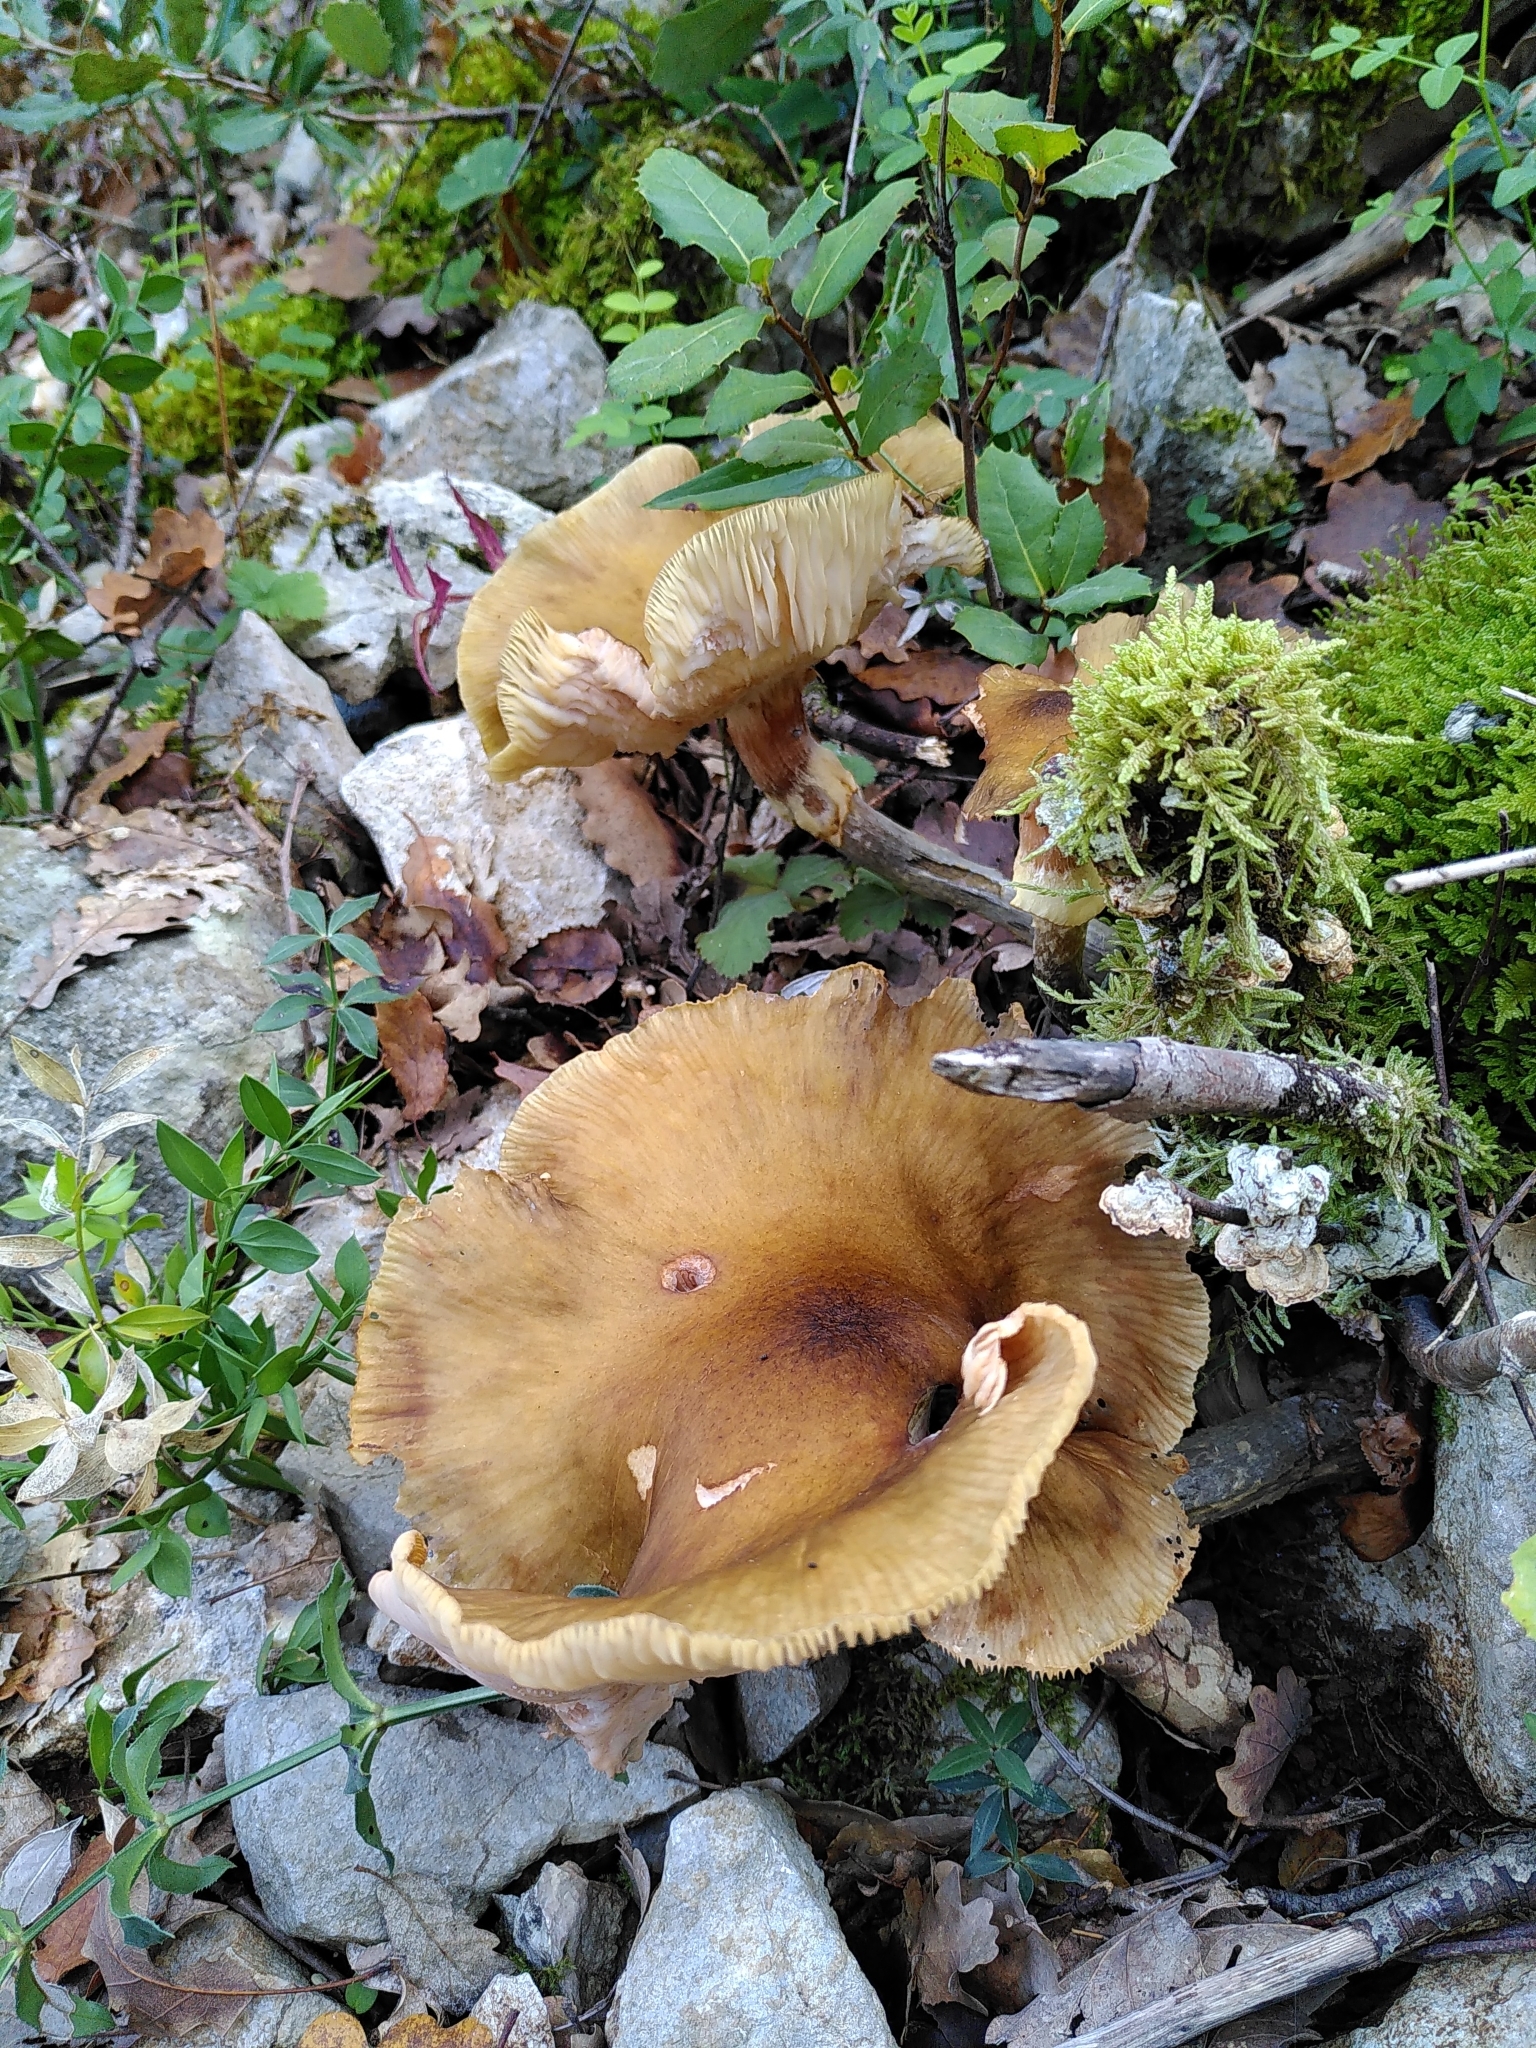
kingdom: Fungi
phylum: Basidiomycota
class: Agaricomycetes
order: Agaricales
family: Physalacriaceae
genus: Armillaria
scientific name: Armillaria mellea
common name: Honey fungus
